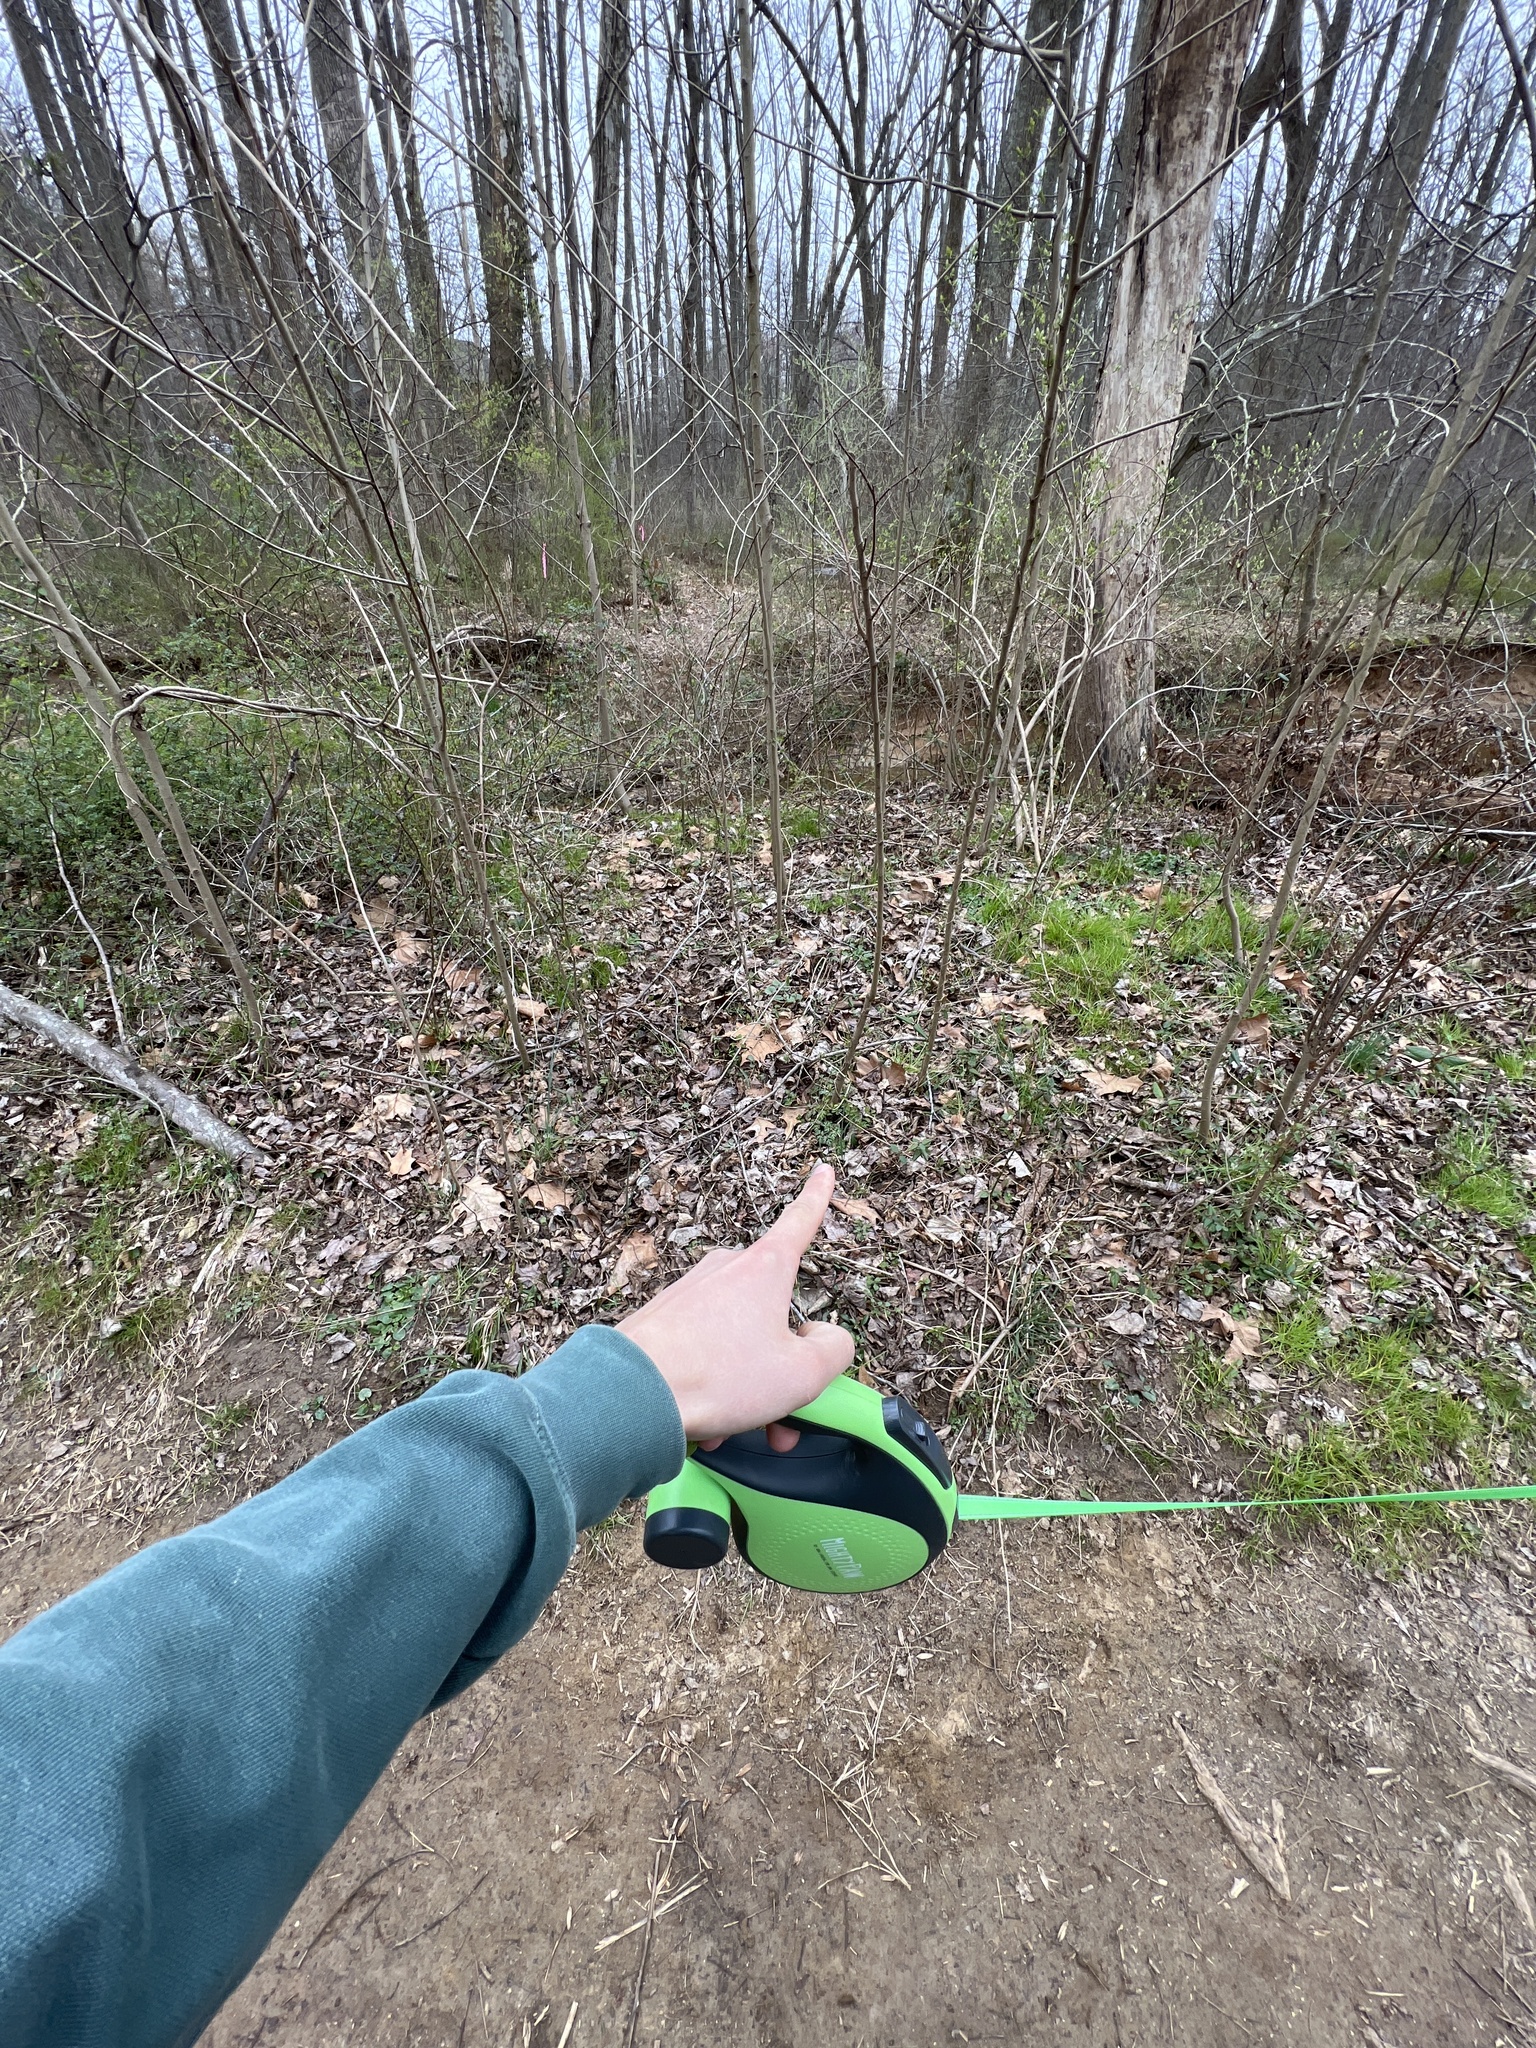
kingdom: Plantae
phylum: Tracheophyta
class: Magnoliopsida
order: Ranunculales
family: Papaveraceae
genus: Corydalis
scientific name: Corydalis incisa
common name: Incised fumewort
